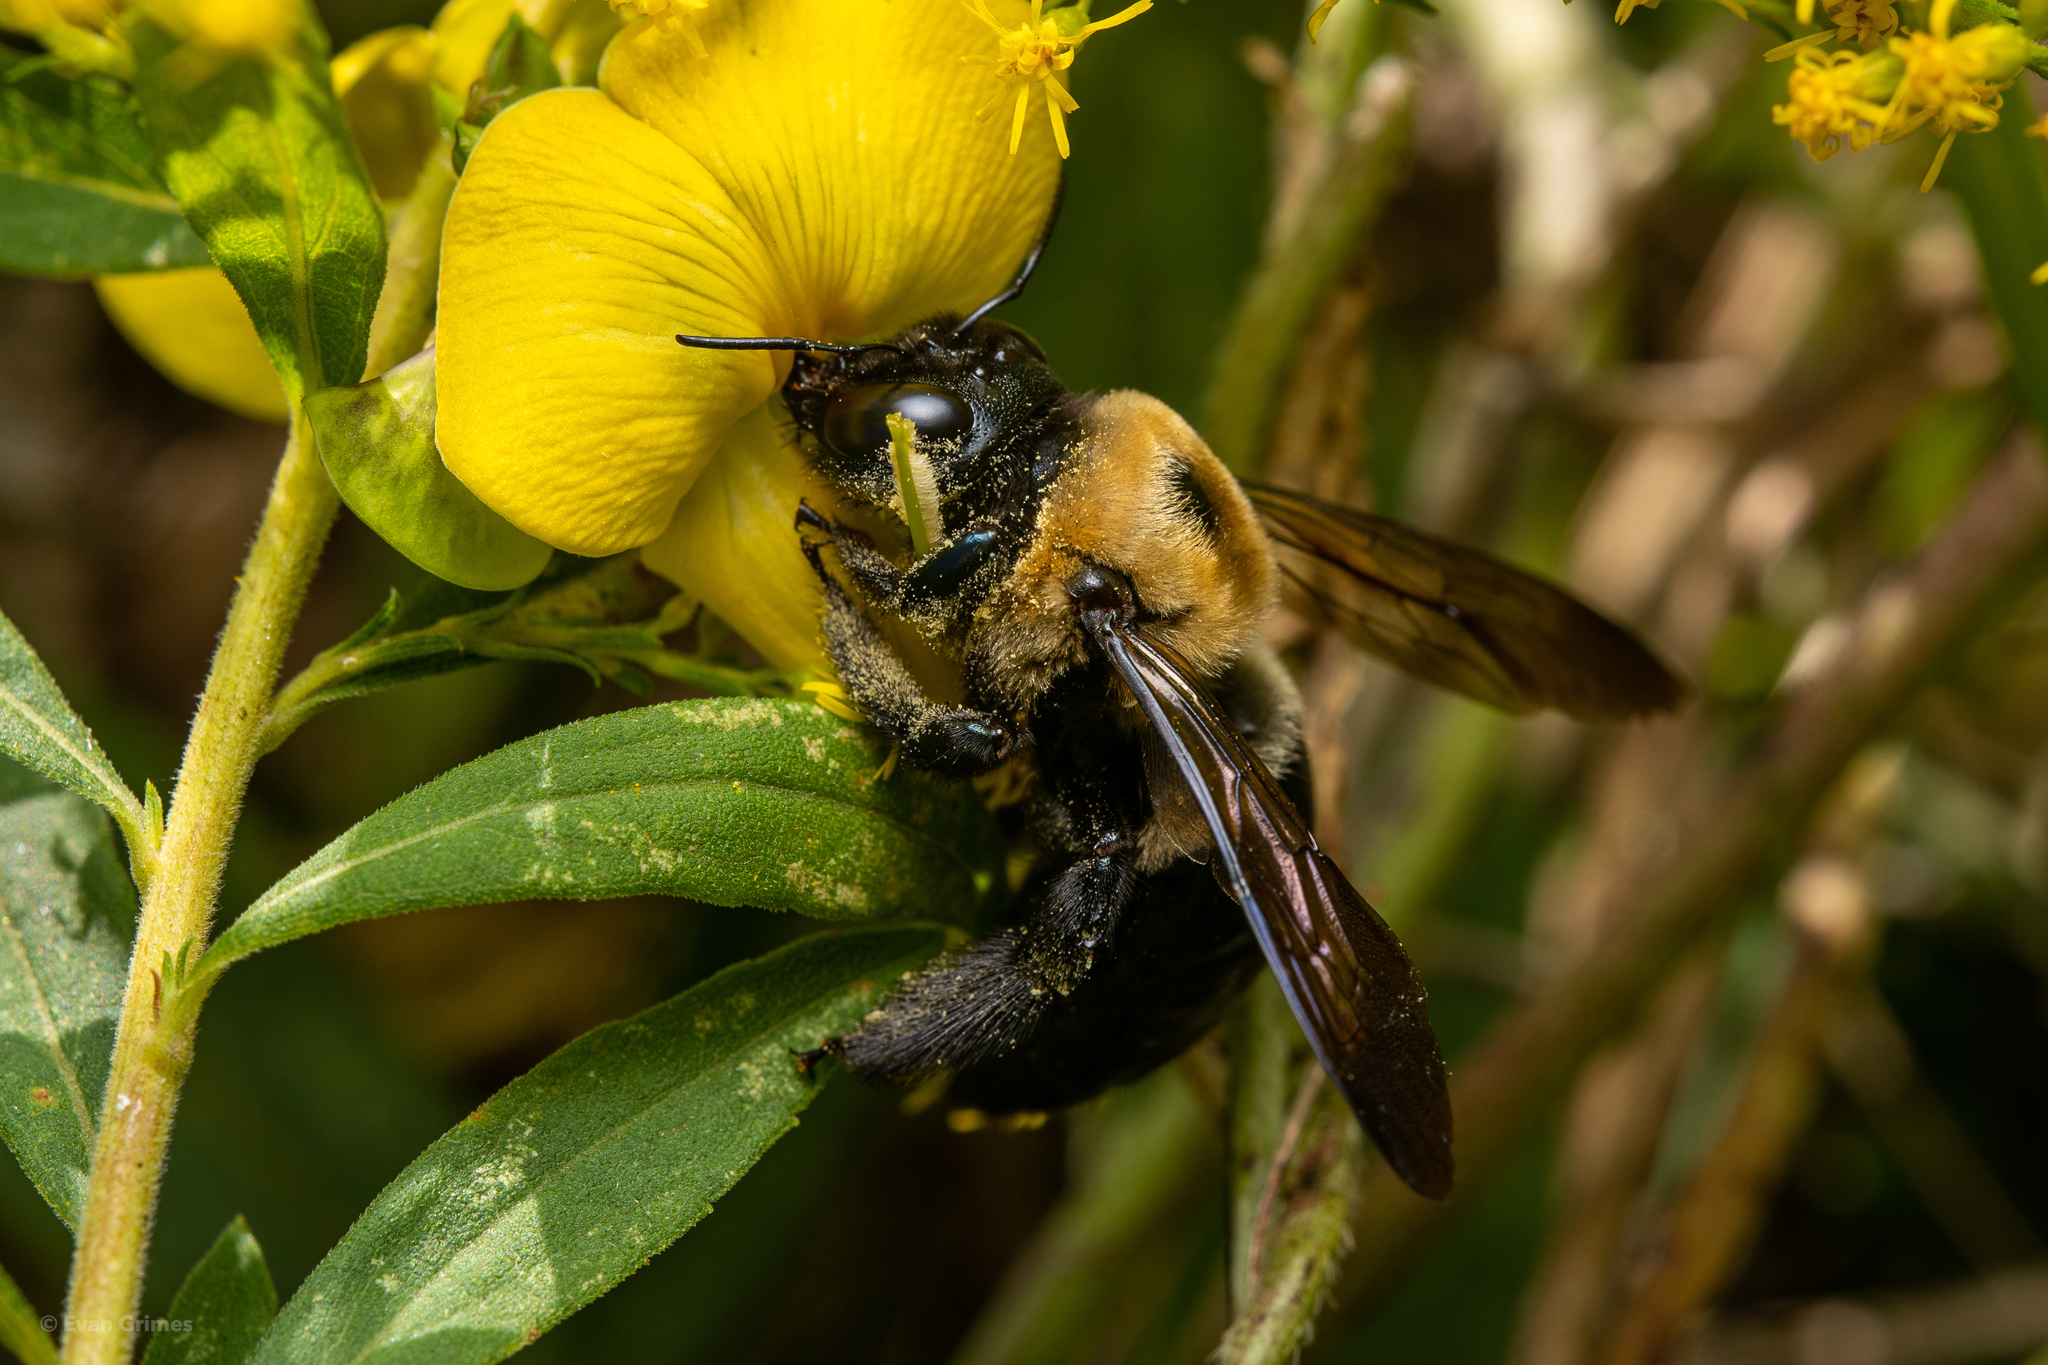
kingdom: Animalia
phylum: Arthropoda
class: Insecta
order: Hymenoptera
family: Apidae
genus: Xylocopa
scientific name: Xylocopa virginica
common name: Carpenter bee
